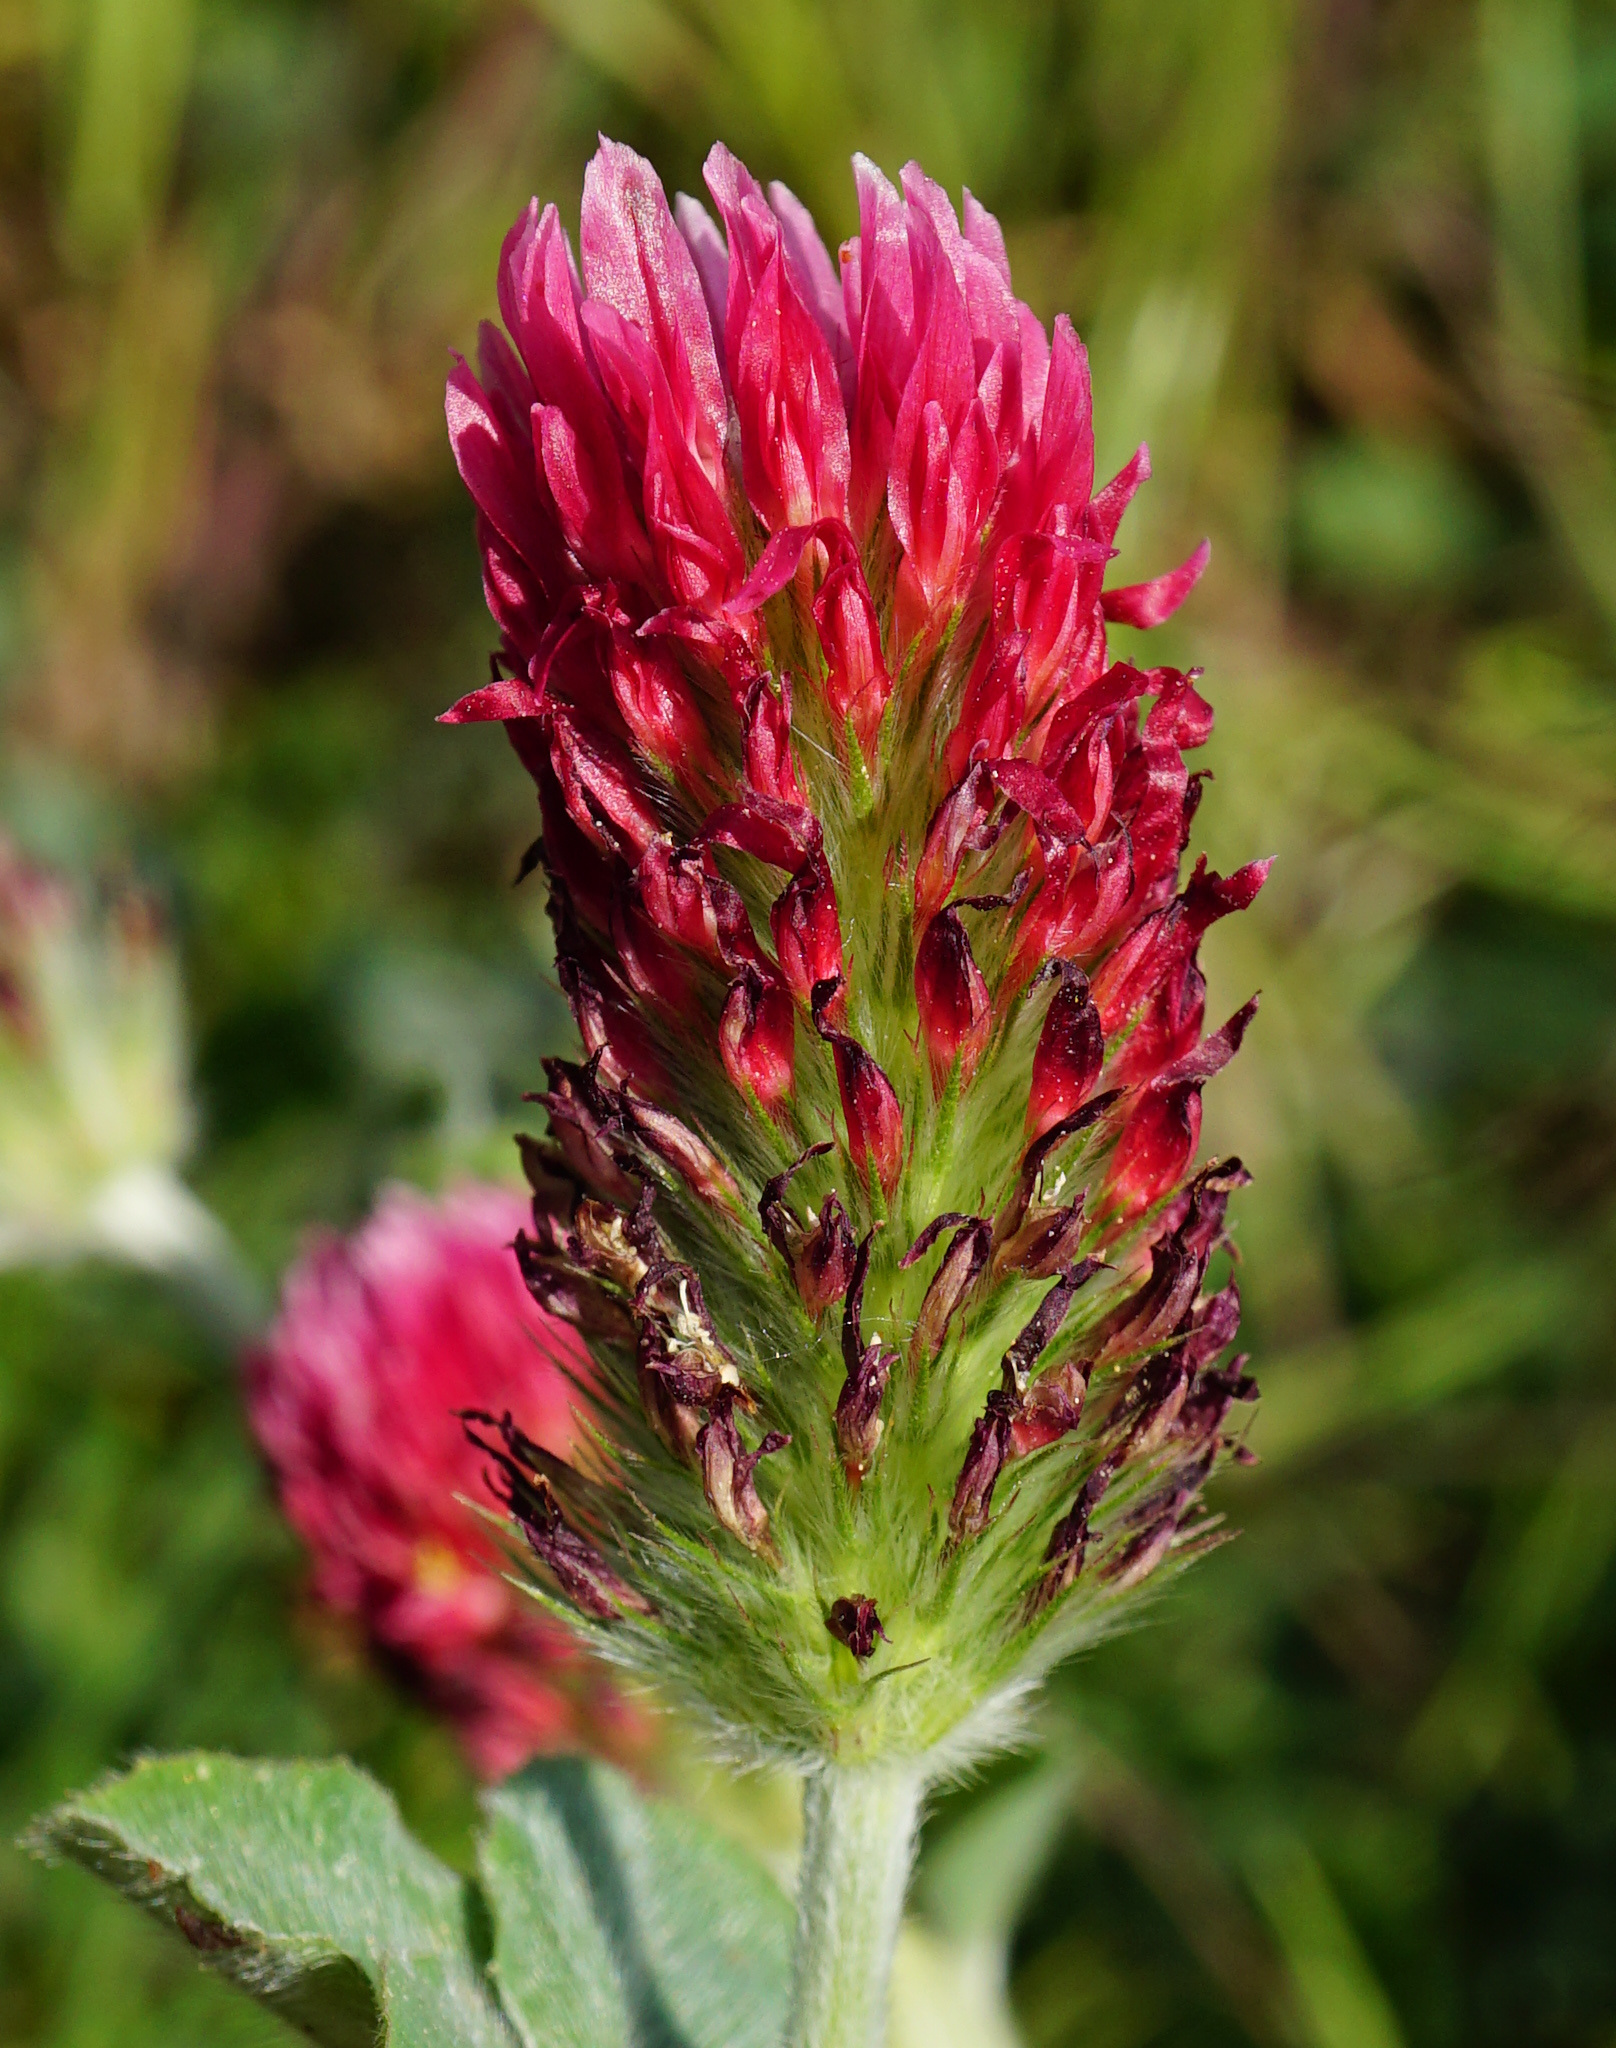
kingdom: Plantae
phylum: Tracheophyta
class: Magnoliopsida
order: Fabales
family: Fabaceae
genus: Trifolium
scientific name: Trifolium incarnatum
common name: Crimson clover
